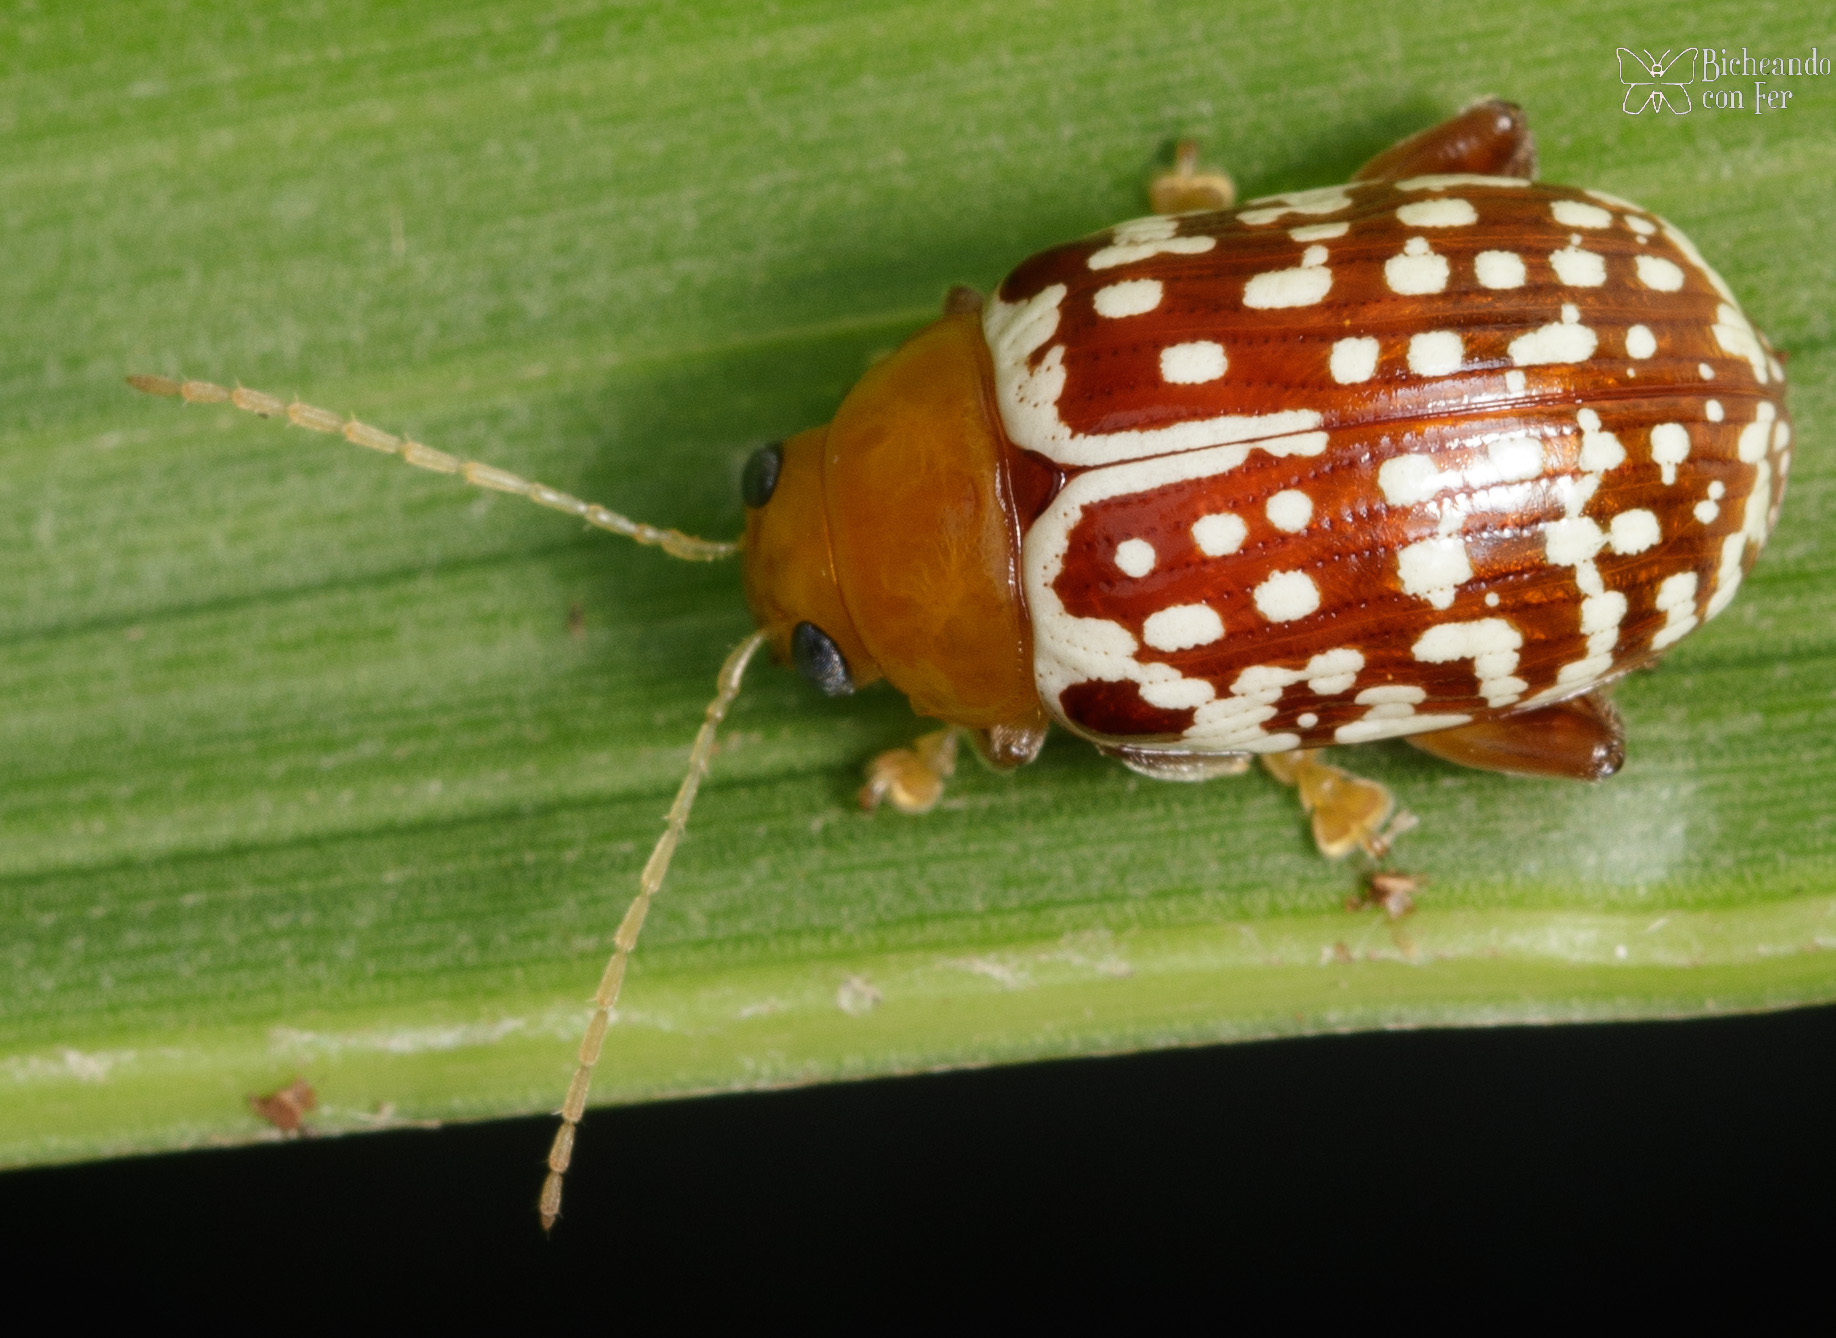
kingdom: Animalia
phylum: Arthropoda
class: Insecta
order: Coleoptera
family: Chrysomelidae
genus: Blepharida
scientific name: Blepharida
